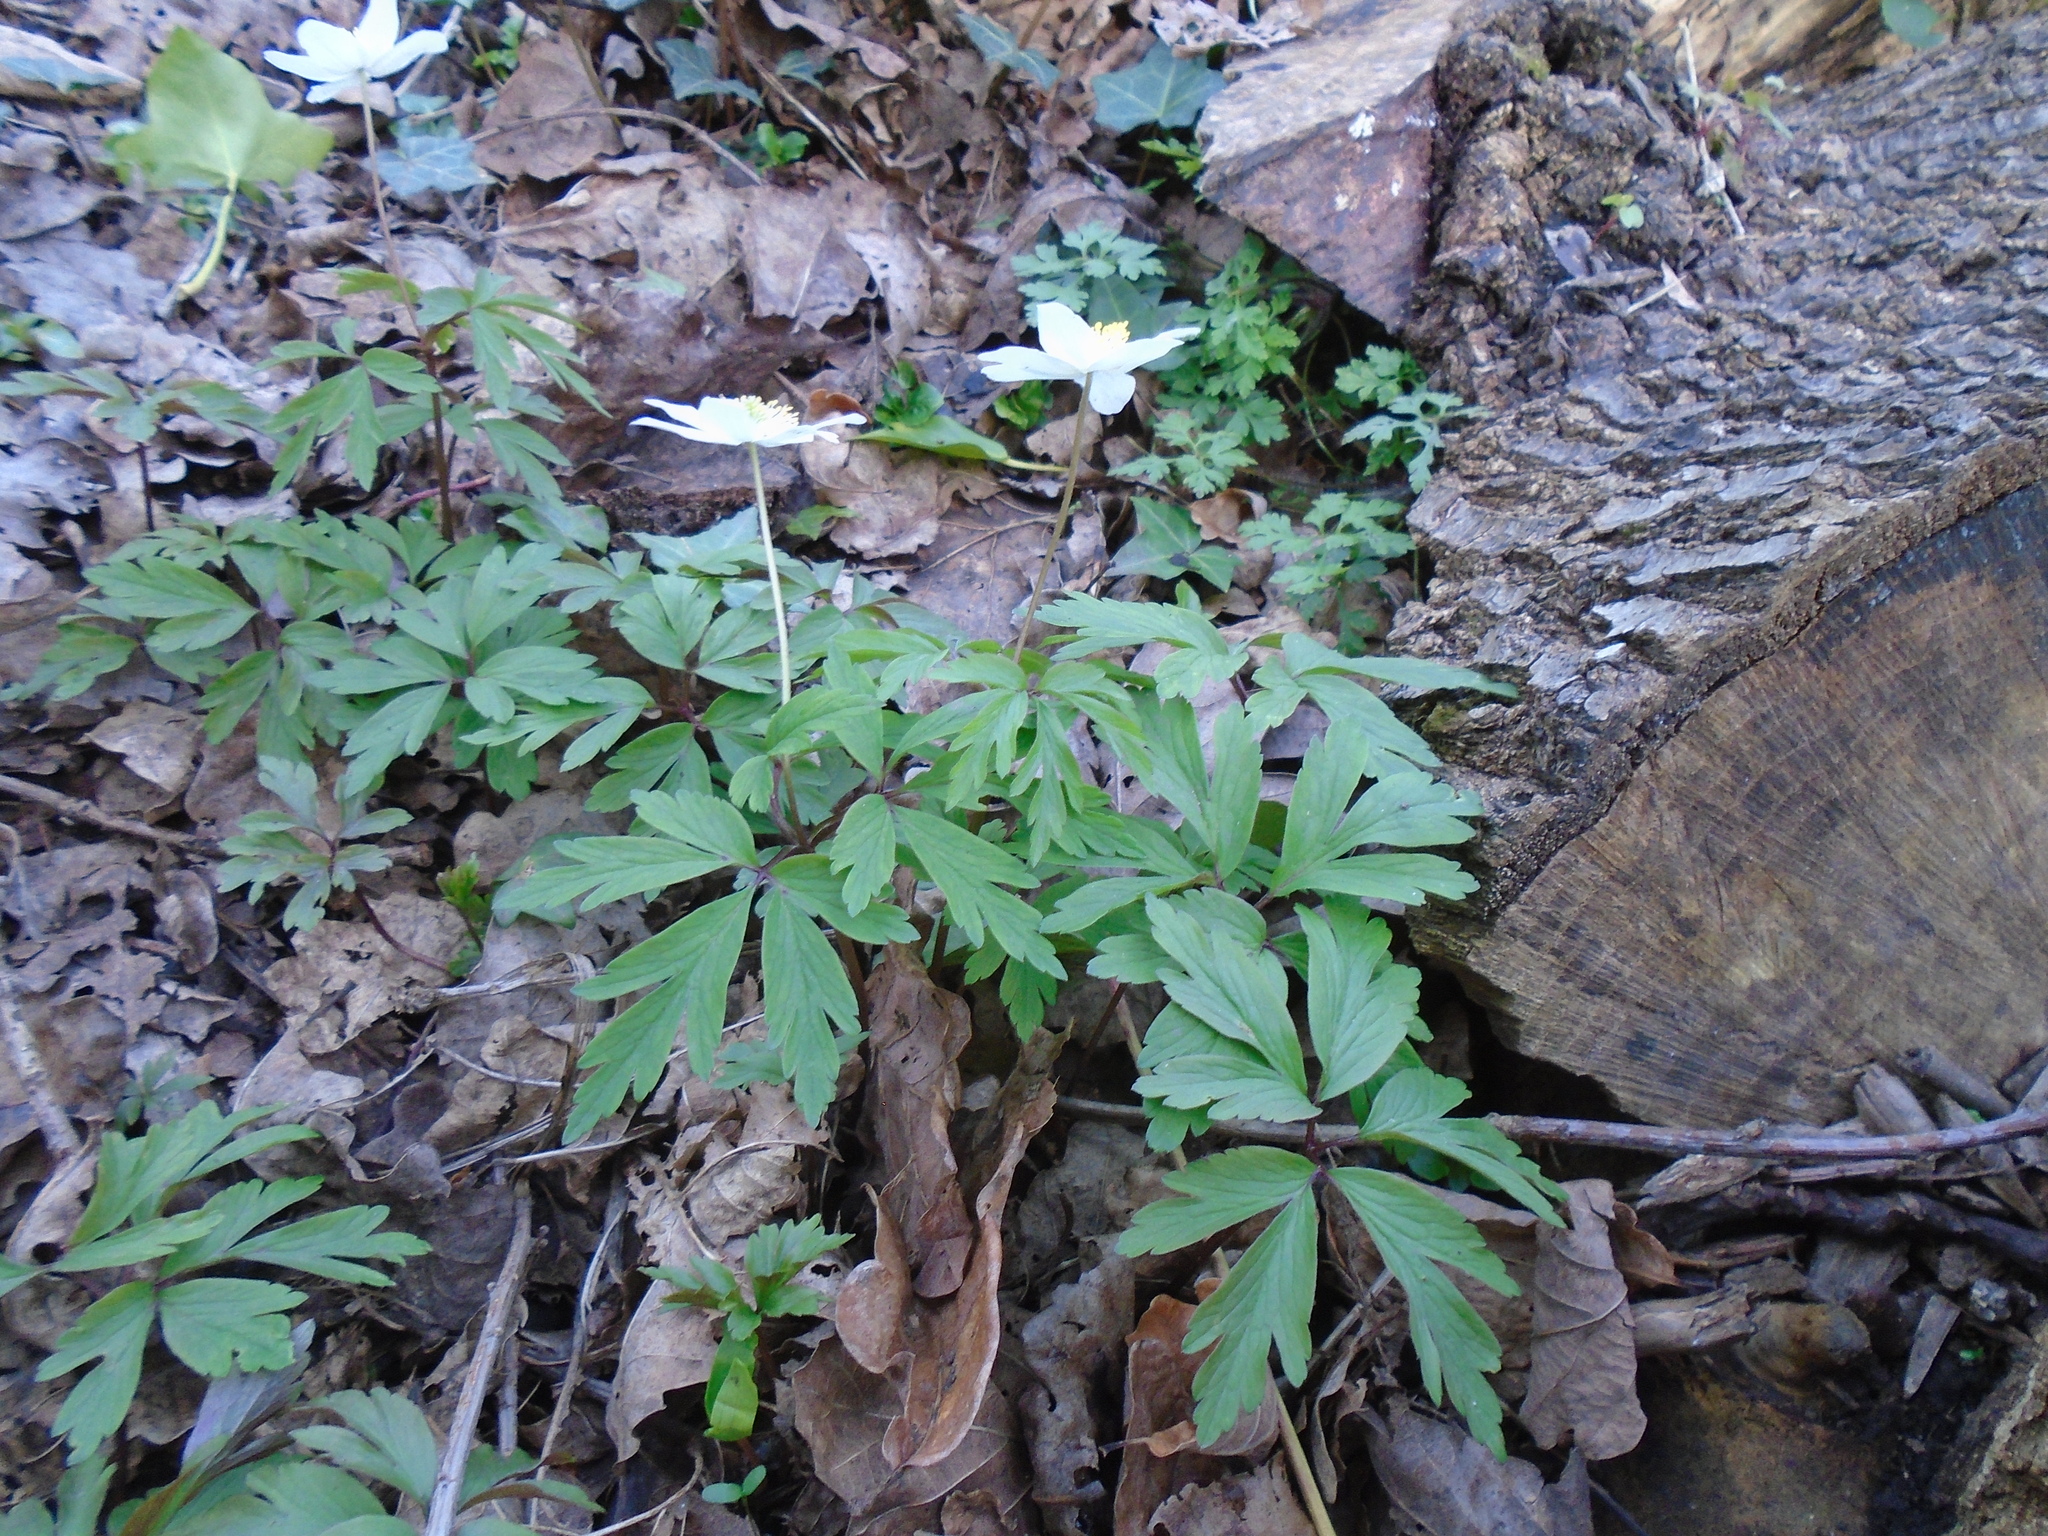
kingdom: Plantae
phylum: Tracheophyta
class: Magnoliopsida
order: Ranunculales
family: Ranunculaceae
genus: Anemone
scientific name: Anemone nemorosa
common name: Wood anemone
